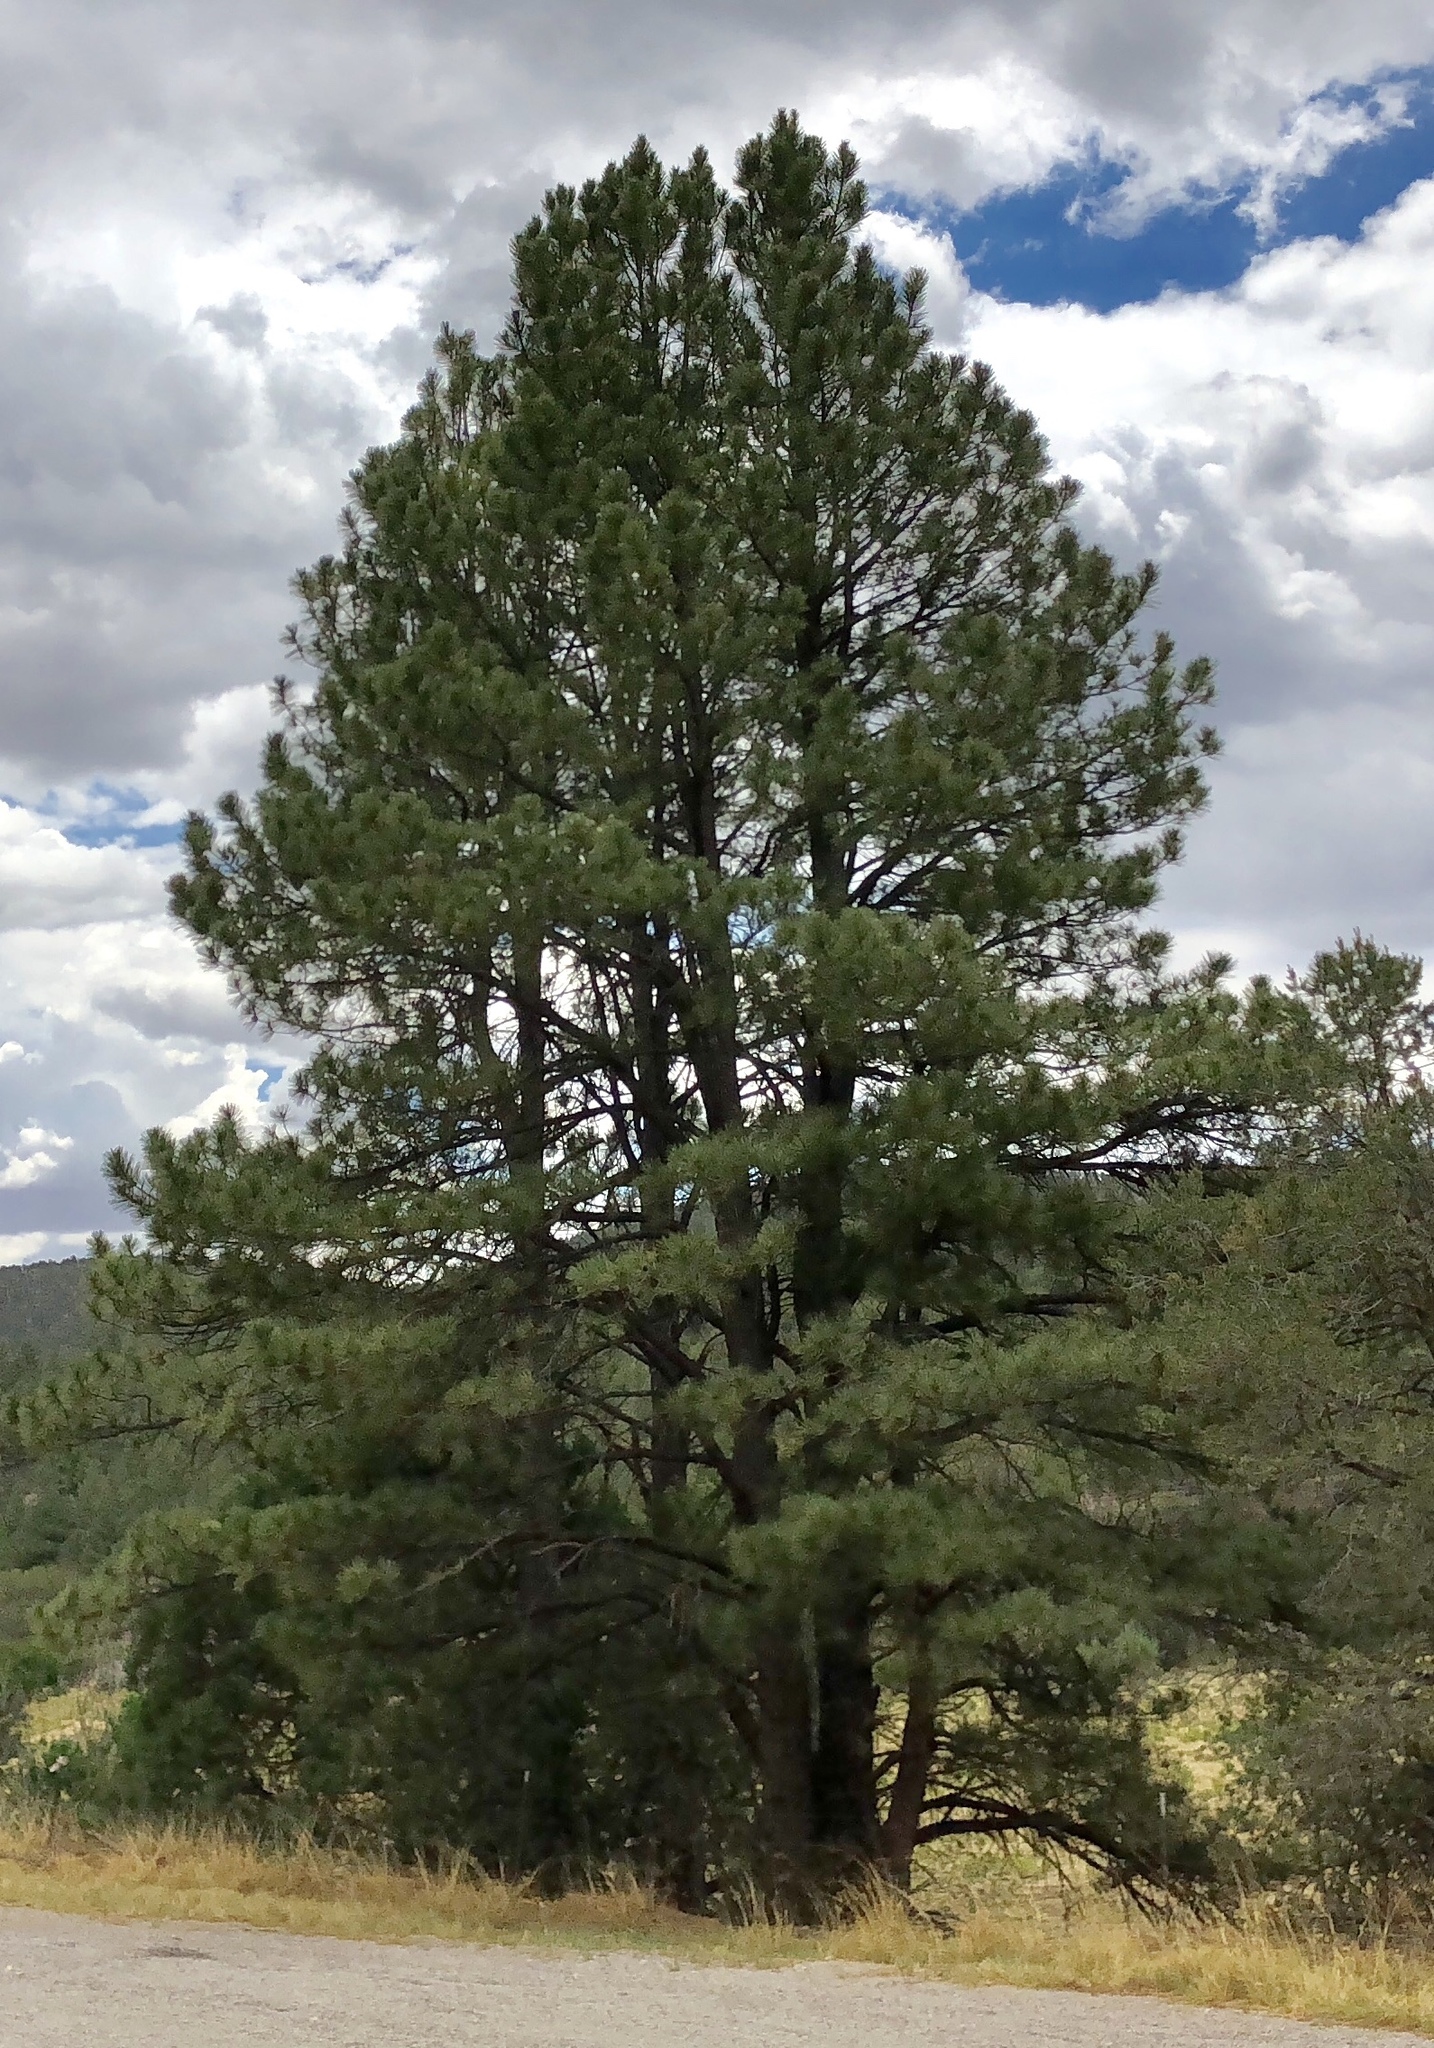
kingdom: Plantae
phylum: Tracheophyta
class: Pinopsida
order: Pinales
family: Pinaceae
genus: Pinus
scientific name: Pinus ponderosa
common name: Western yellow-pine
